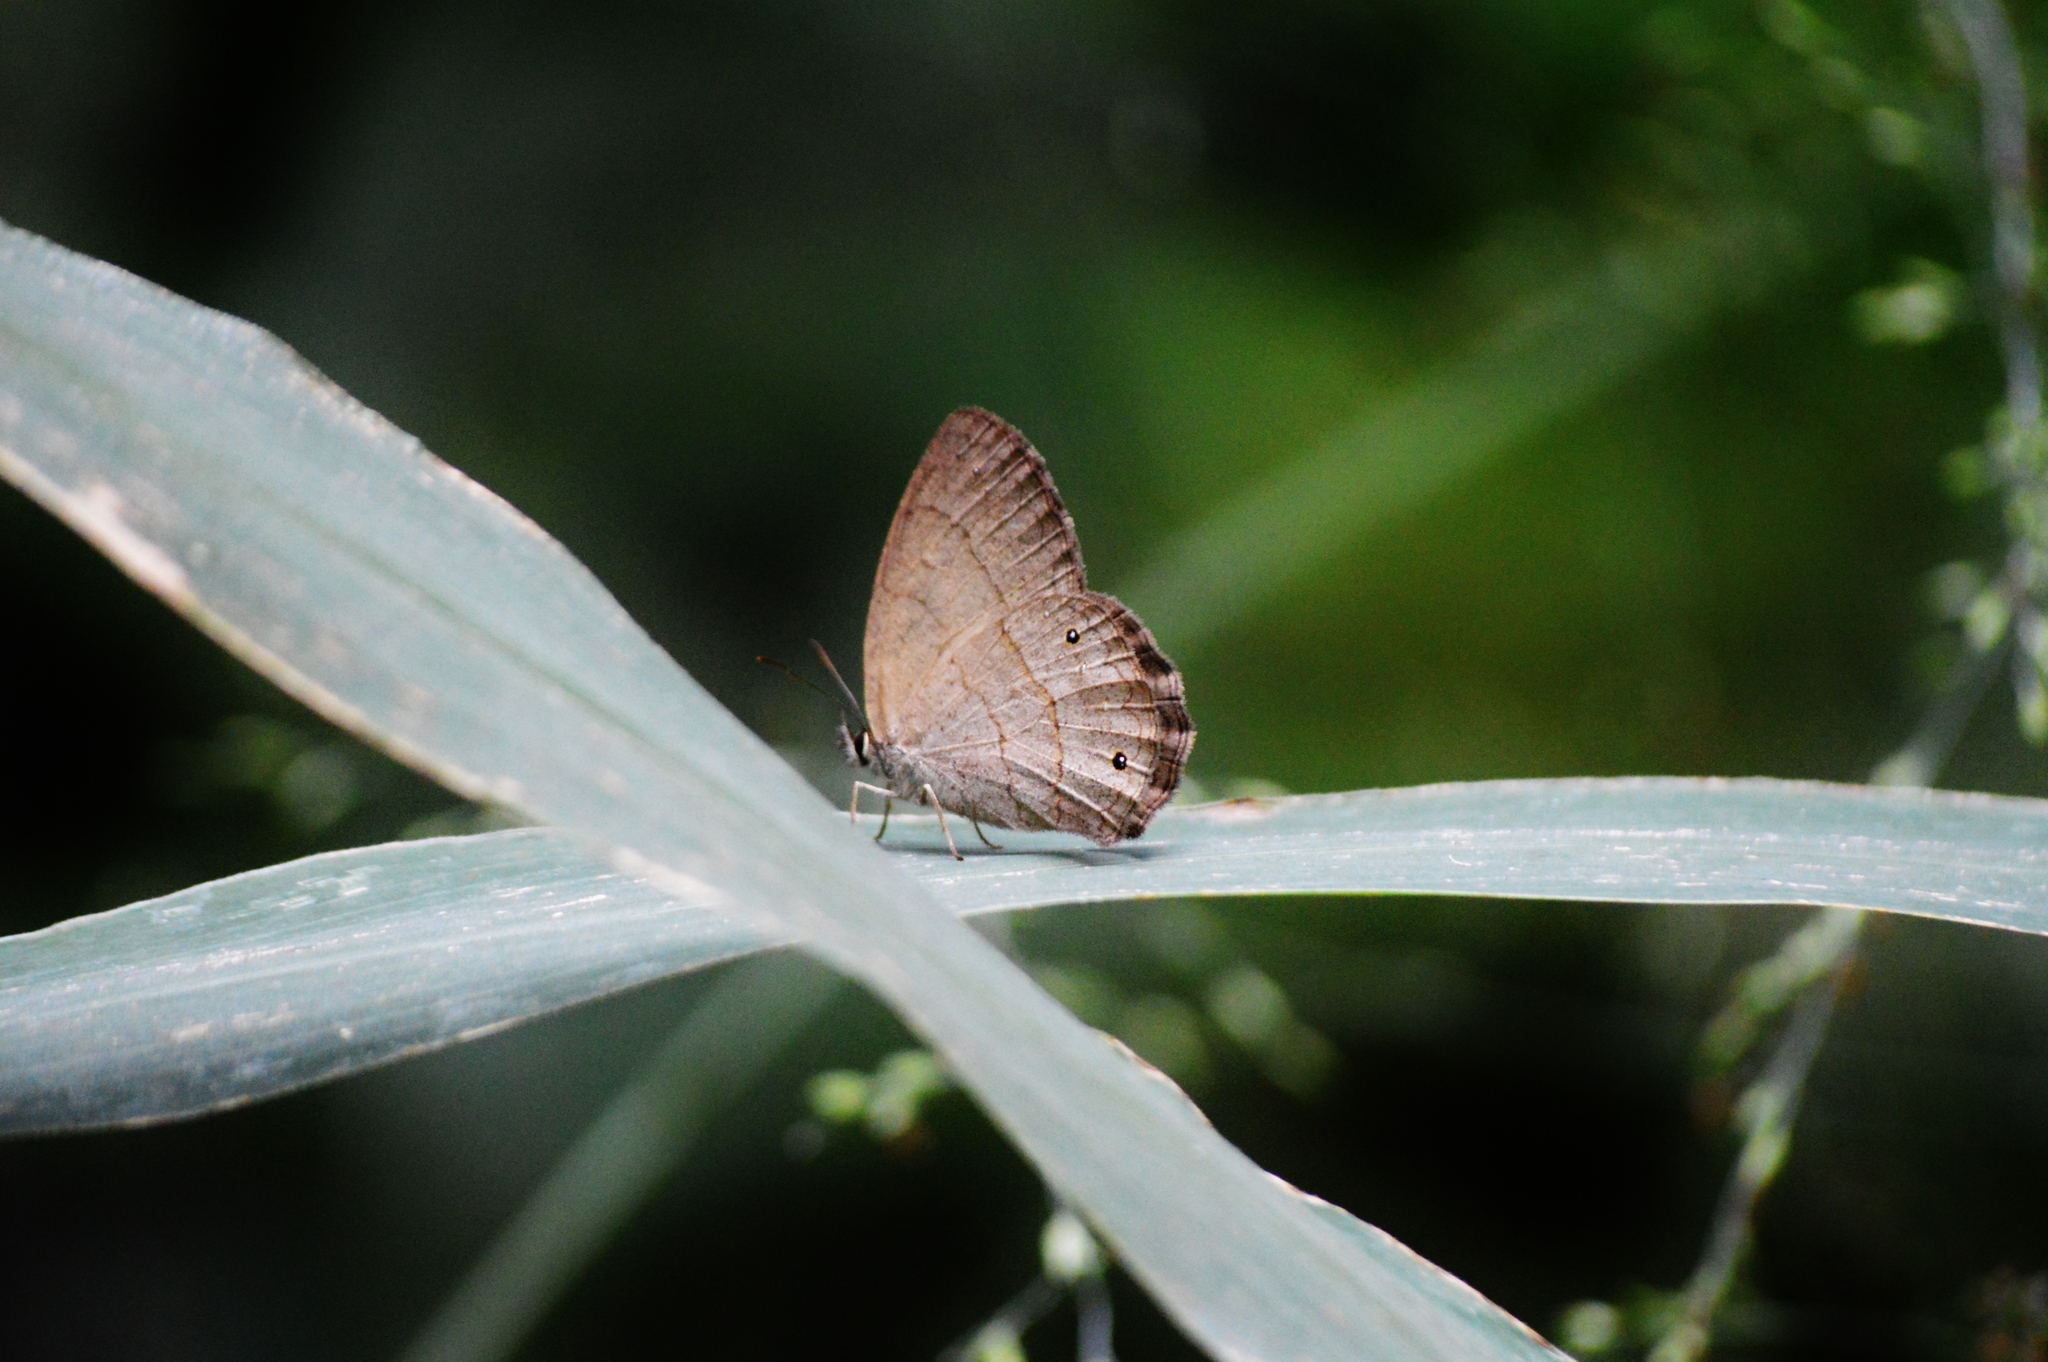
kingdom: Animalia
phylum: Arthropoda
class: Insecta
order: Lepidoptera
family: Nymphalidae
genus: Euptychia
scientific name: Euptychia Cissia eous
